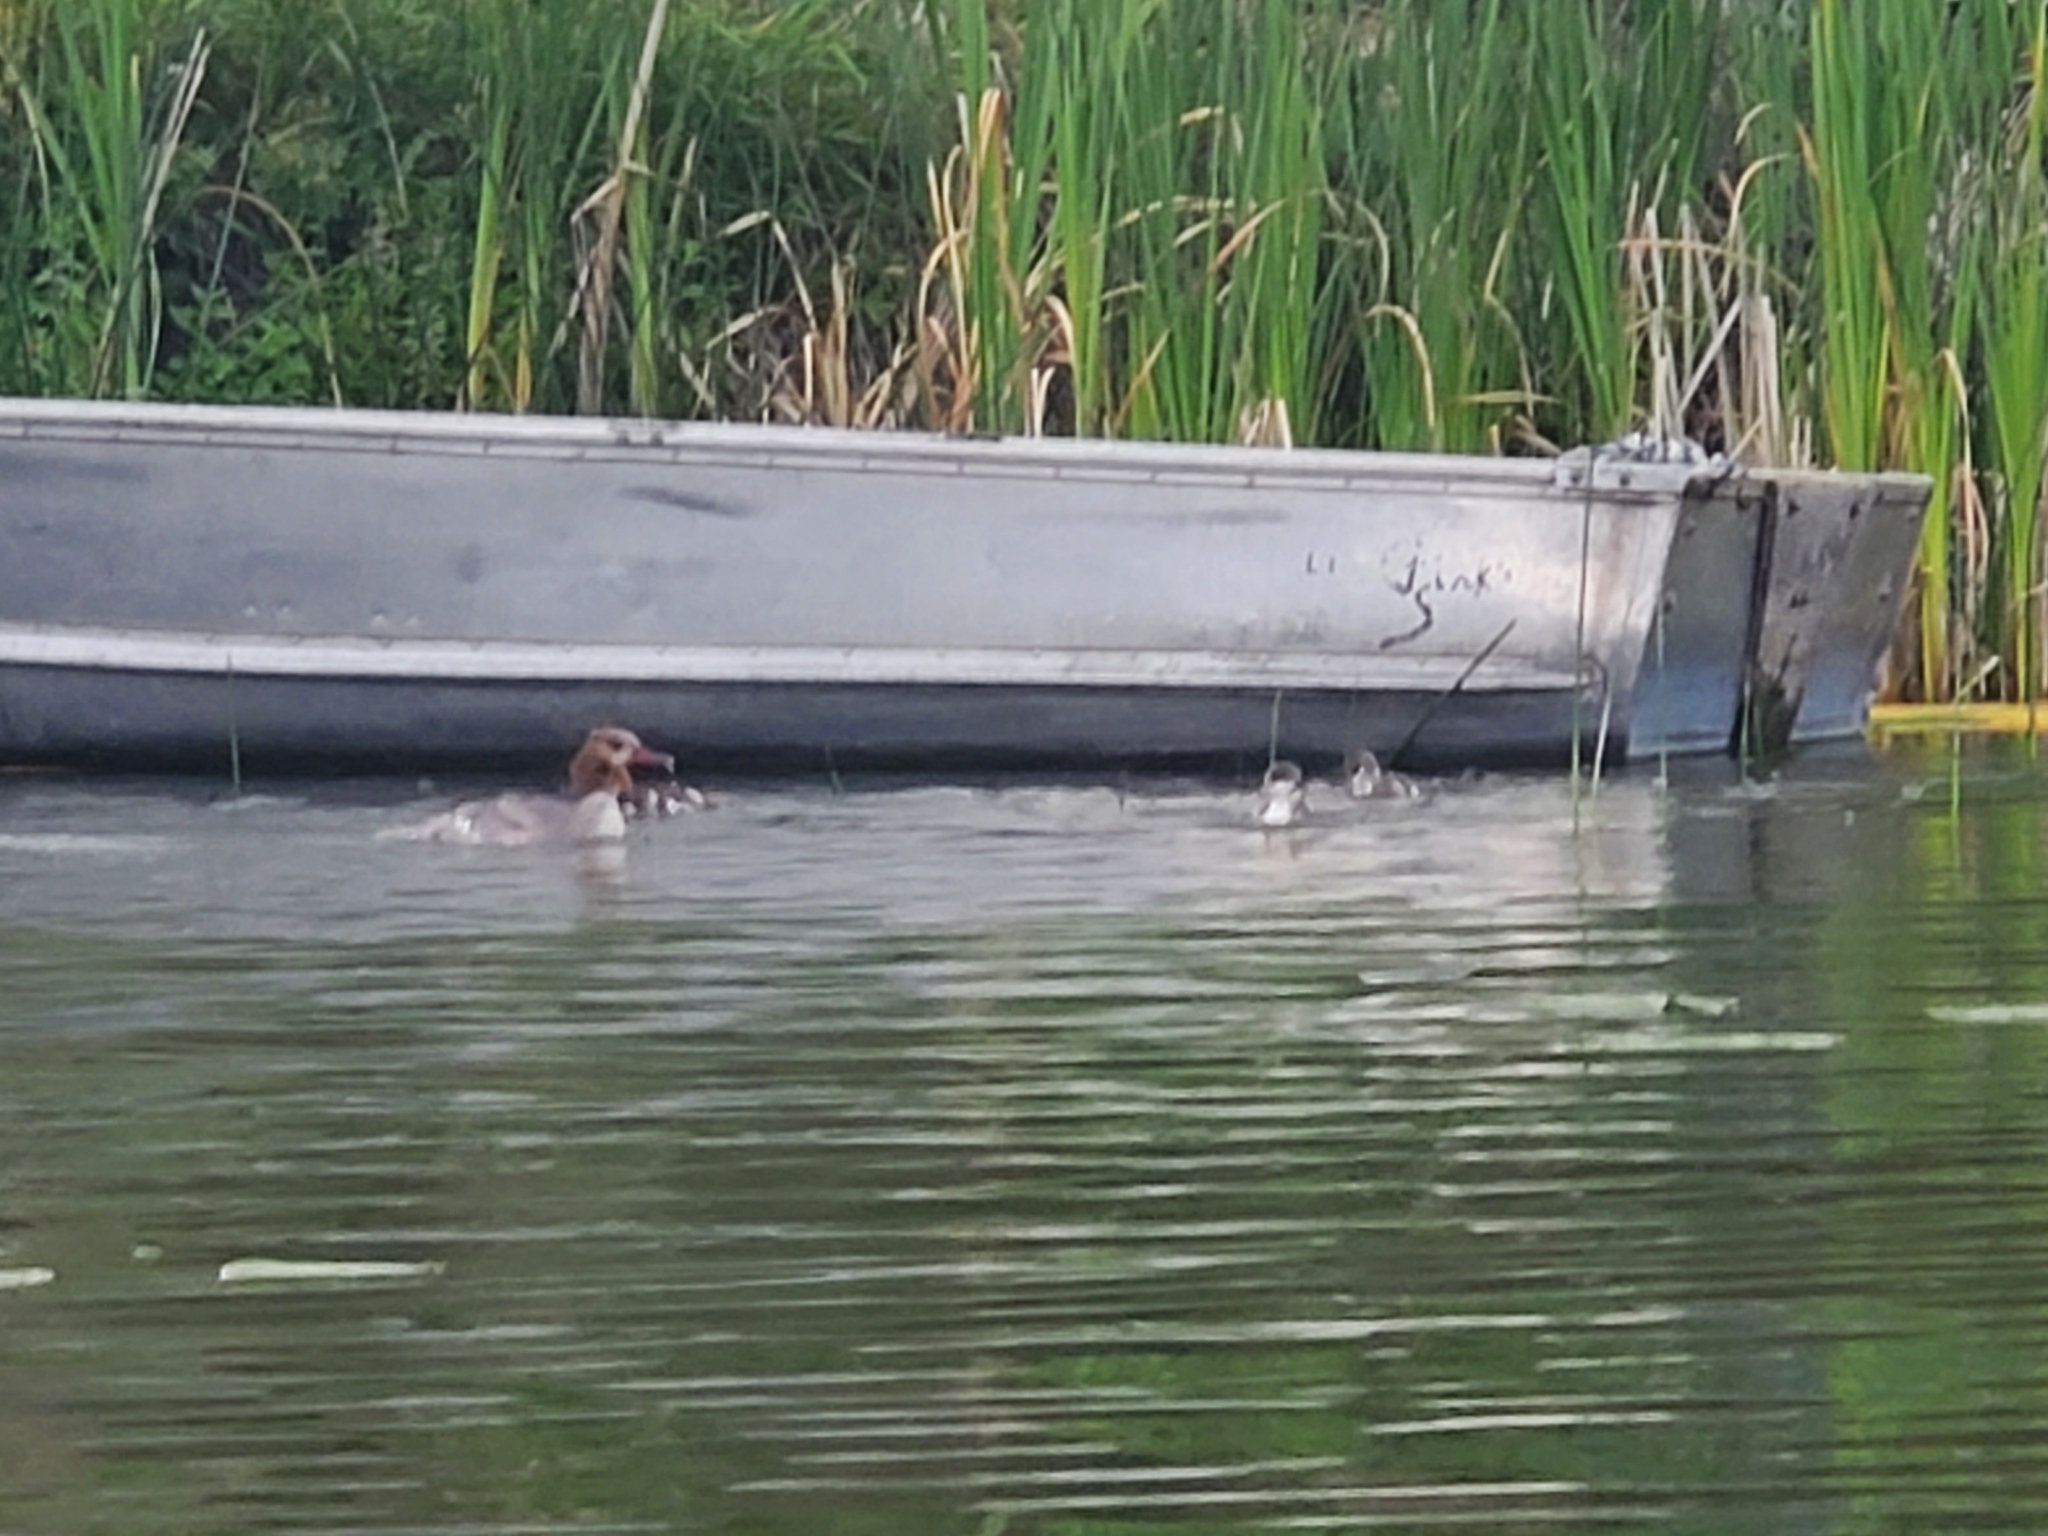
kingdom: Animalia
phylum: Chordata
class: Aves
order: Anseriformes
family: Anatidae
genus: Mergus
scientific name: Mergus merganser
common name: Common merganser
